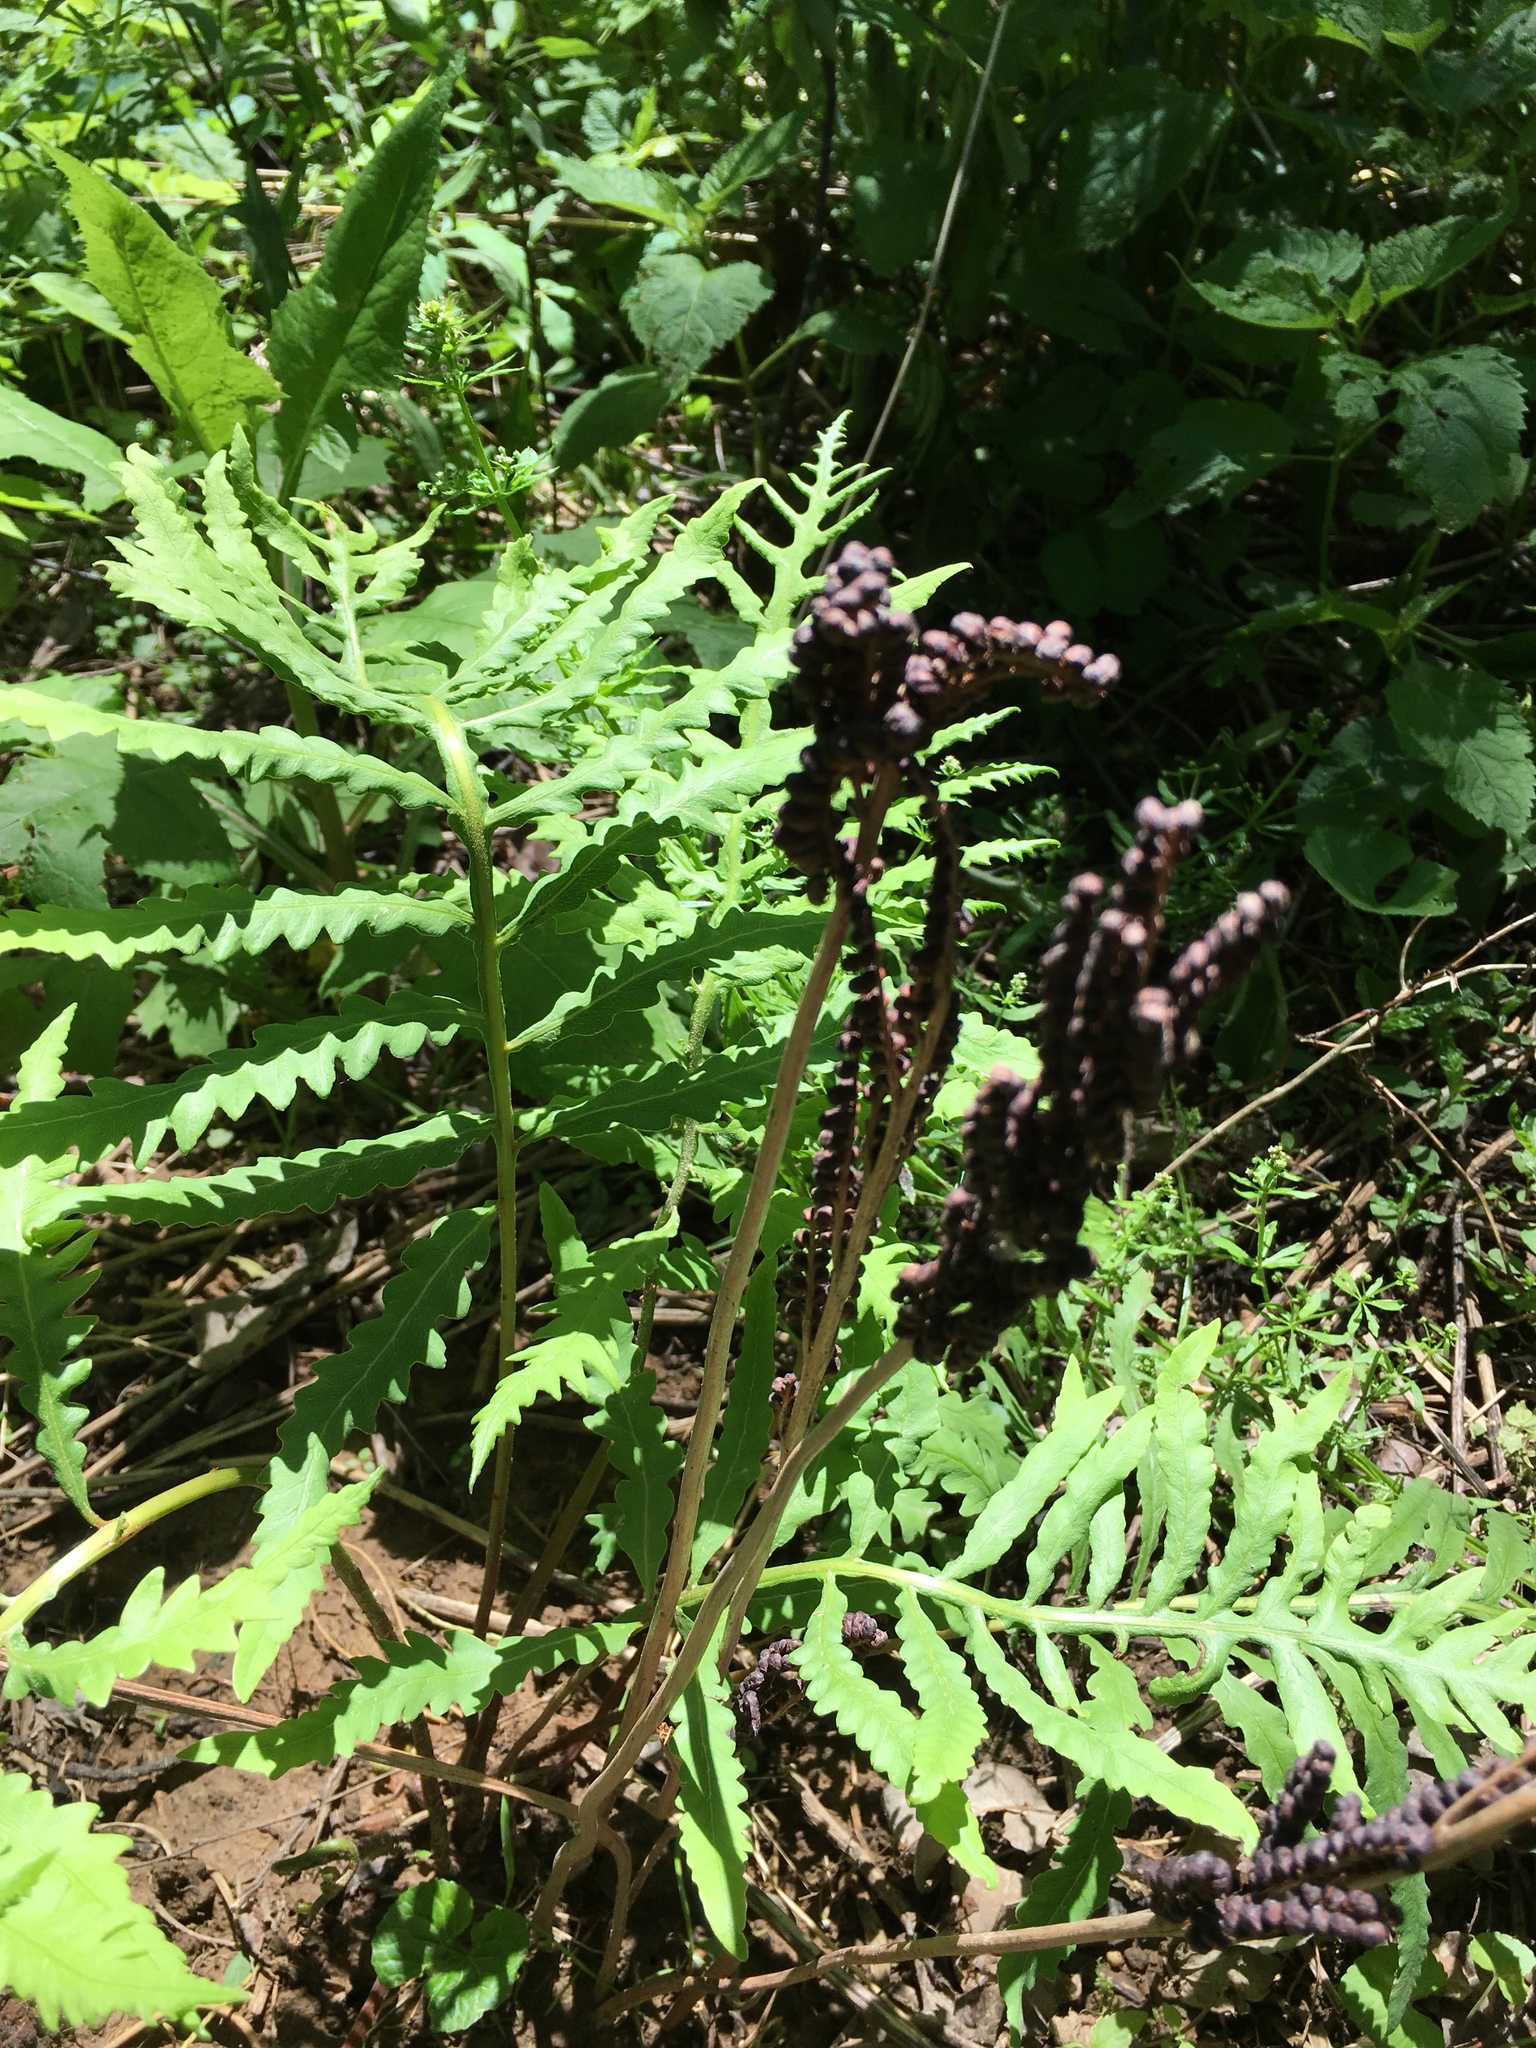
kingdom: Plantae
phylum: Tracheophyta
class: Polypodiopsida
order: Polypodiales
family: Onocleaceae
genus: Onoclea
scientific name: Onoclea sensibilis
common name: Sensitive fern
